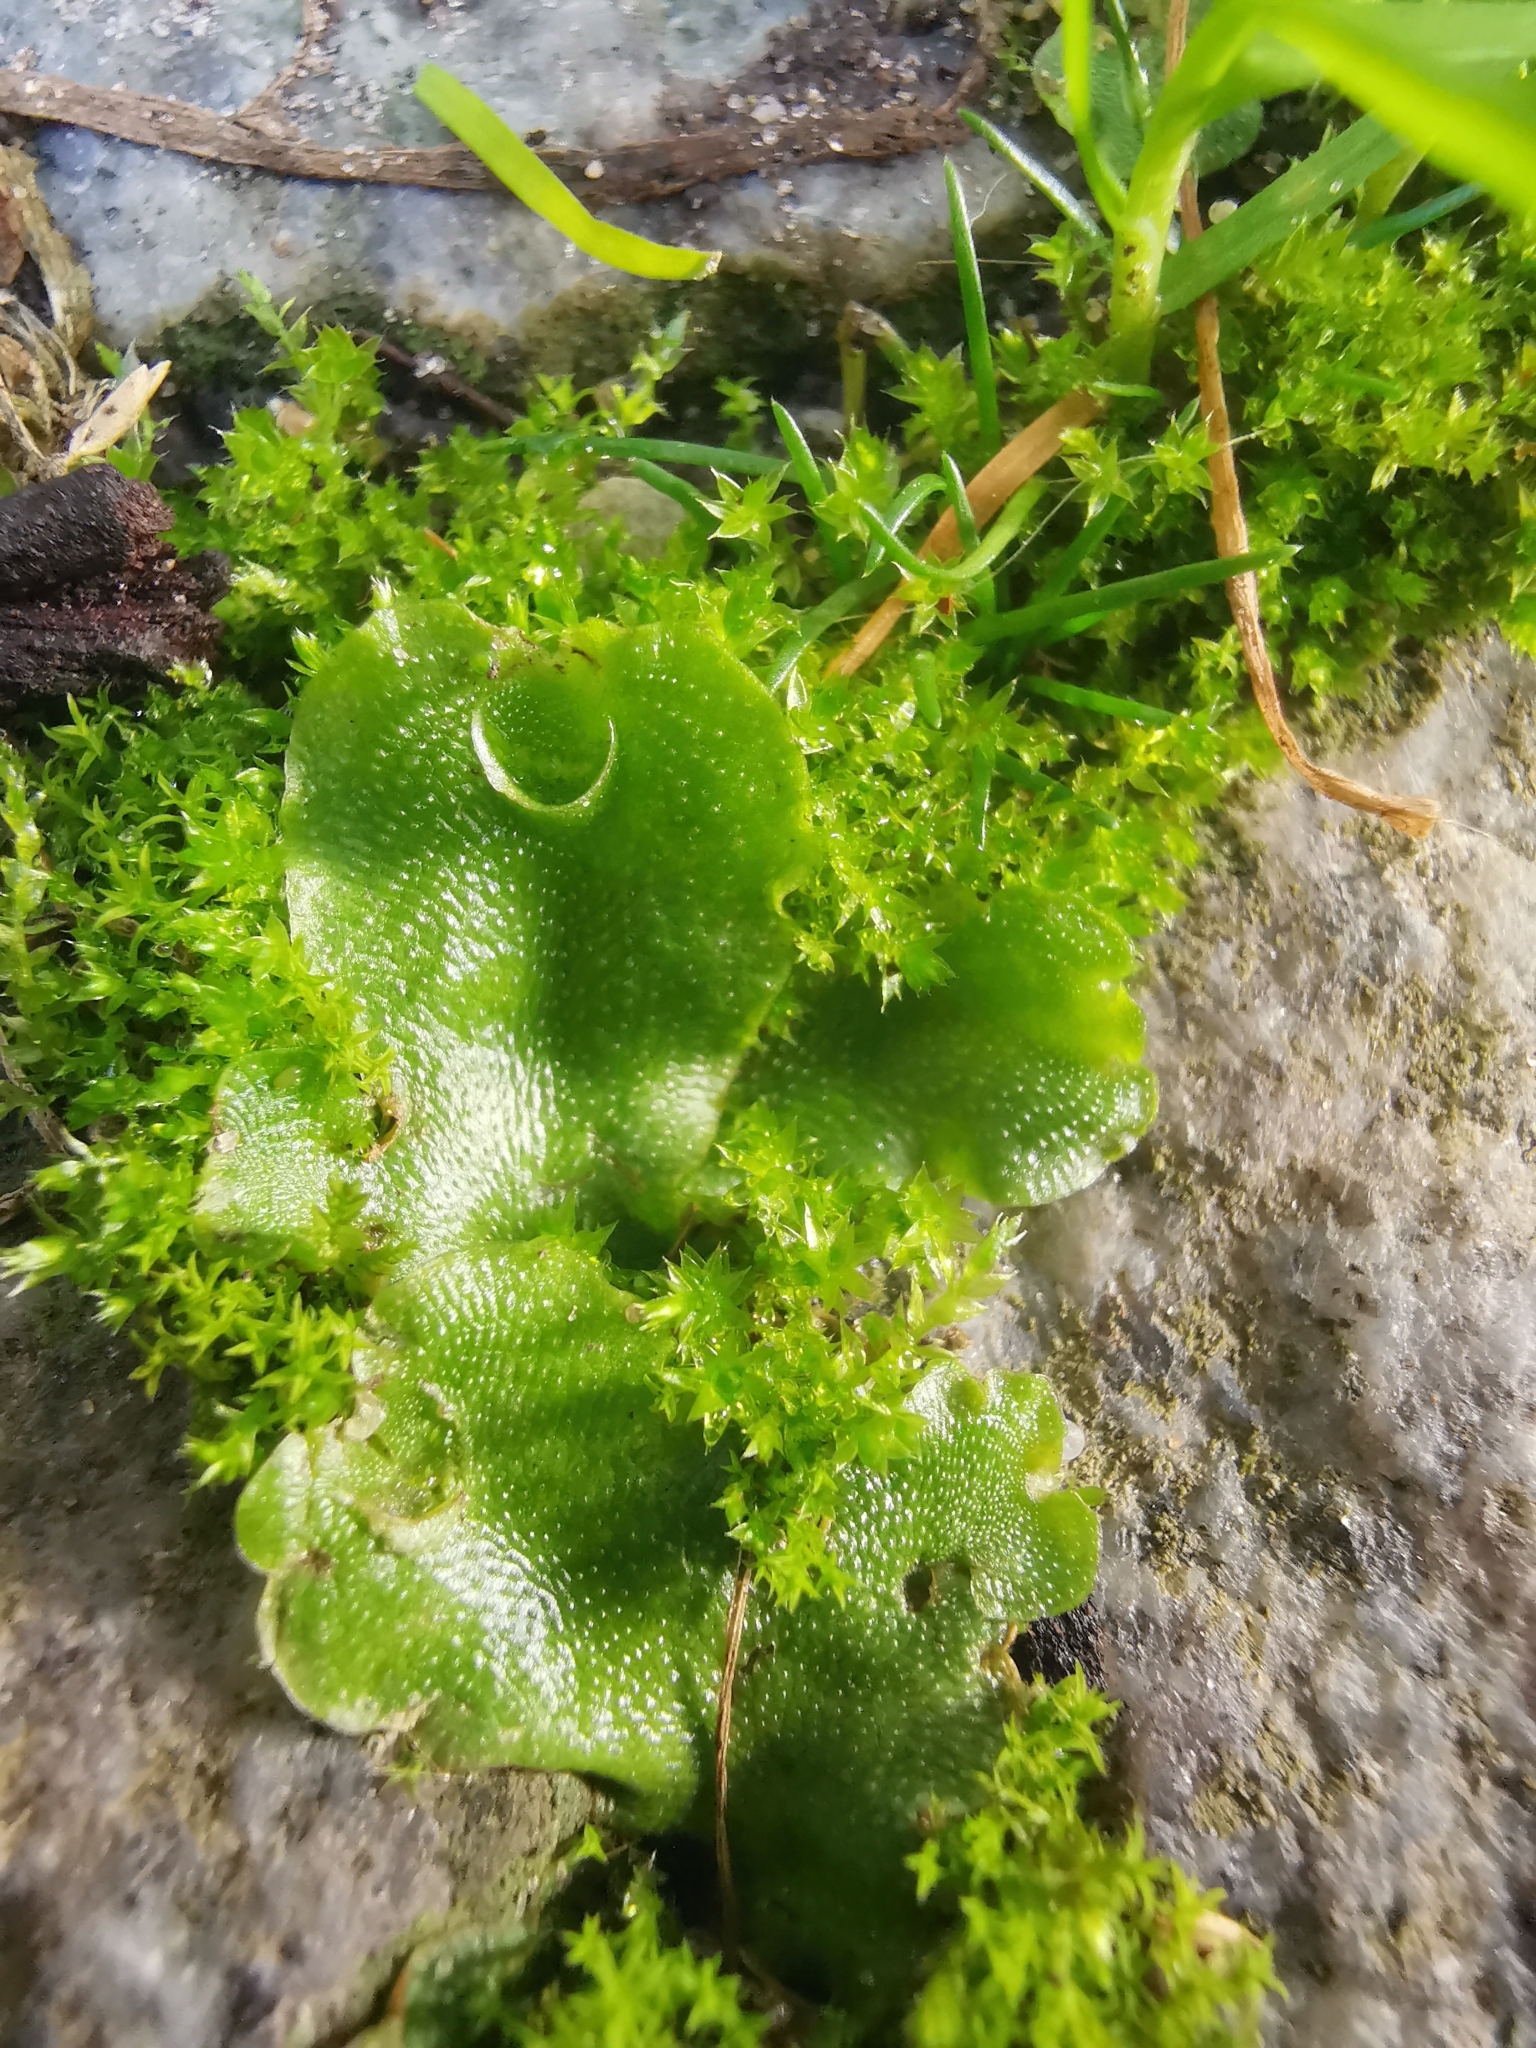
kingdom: Plantae
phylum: Marchantiophyta
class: Marchantiopsida
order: Lunulariales
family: Lunulariaceae
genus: Lunularia
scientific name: Lunularia cruciata
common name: Crescent-cup liverwort
